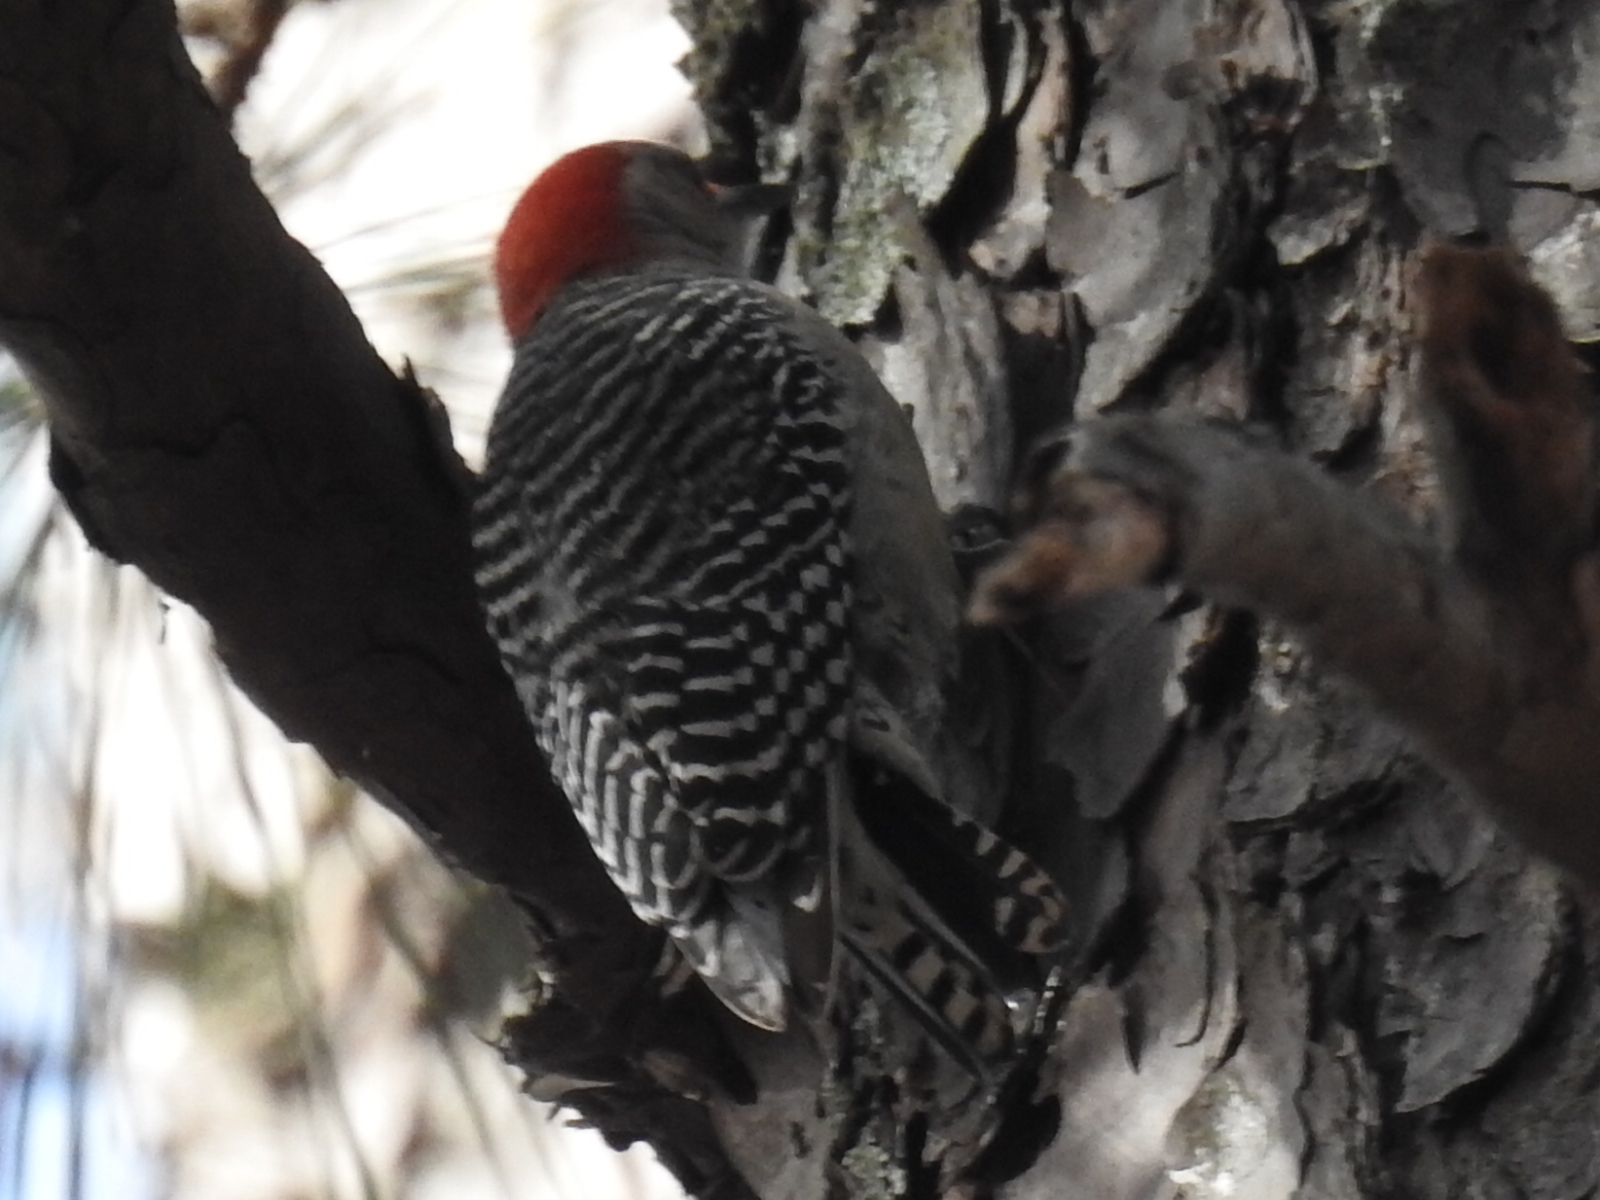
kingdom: Animalia
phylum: Chordata
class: Aves
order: Piciformes
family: Picidae
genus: Melanerpes
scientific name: Melanerpes carolinus
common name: Red-bellied woodpecker
